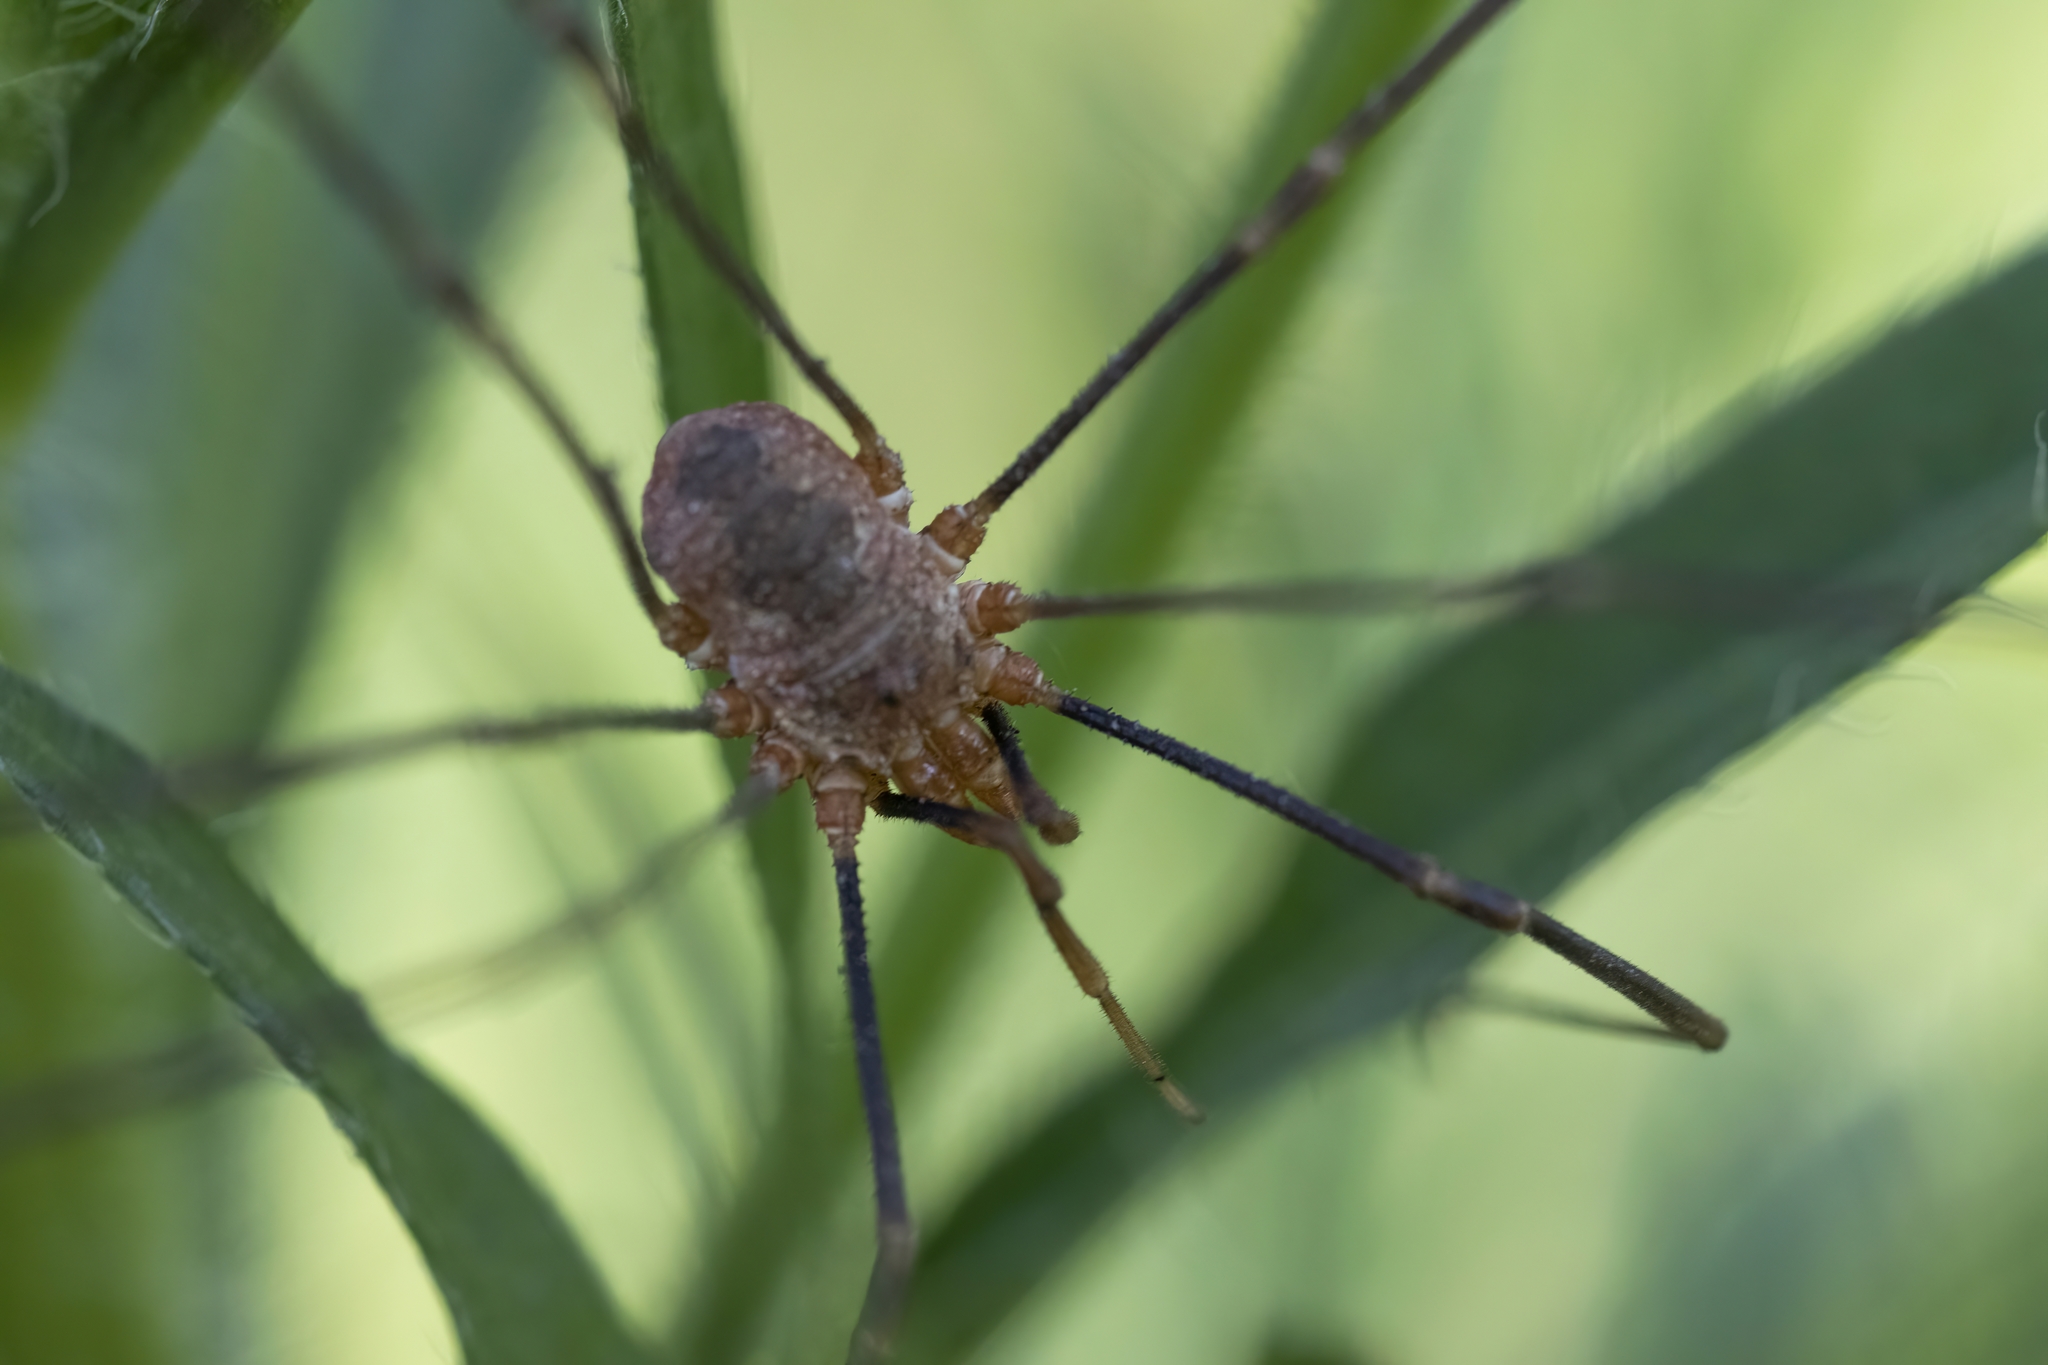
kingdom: Animalia
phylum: Arthropoda
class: Arachnida
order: Opiliones
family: Phalangiidae
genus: Phalangium
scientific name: Phalangium opilio
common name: Daddy longleg
